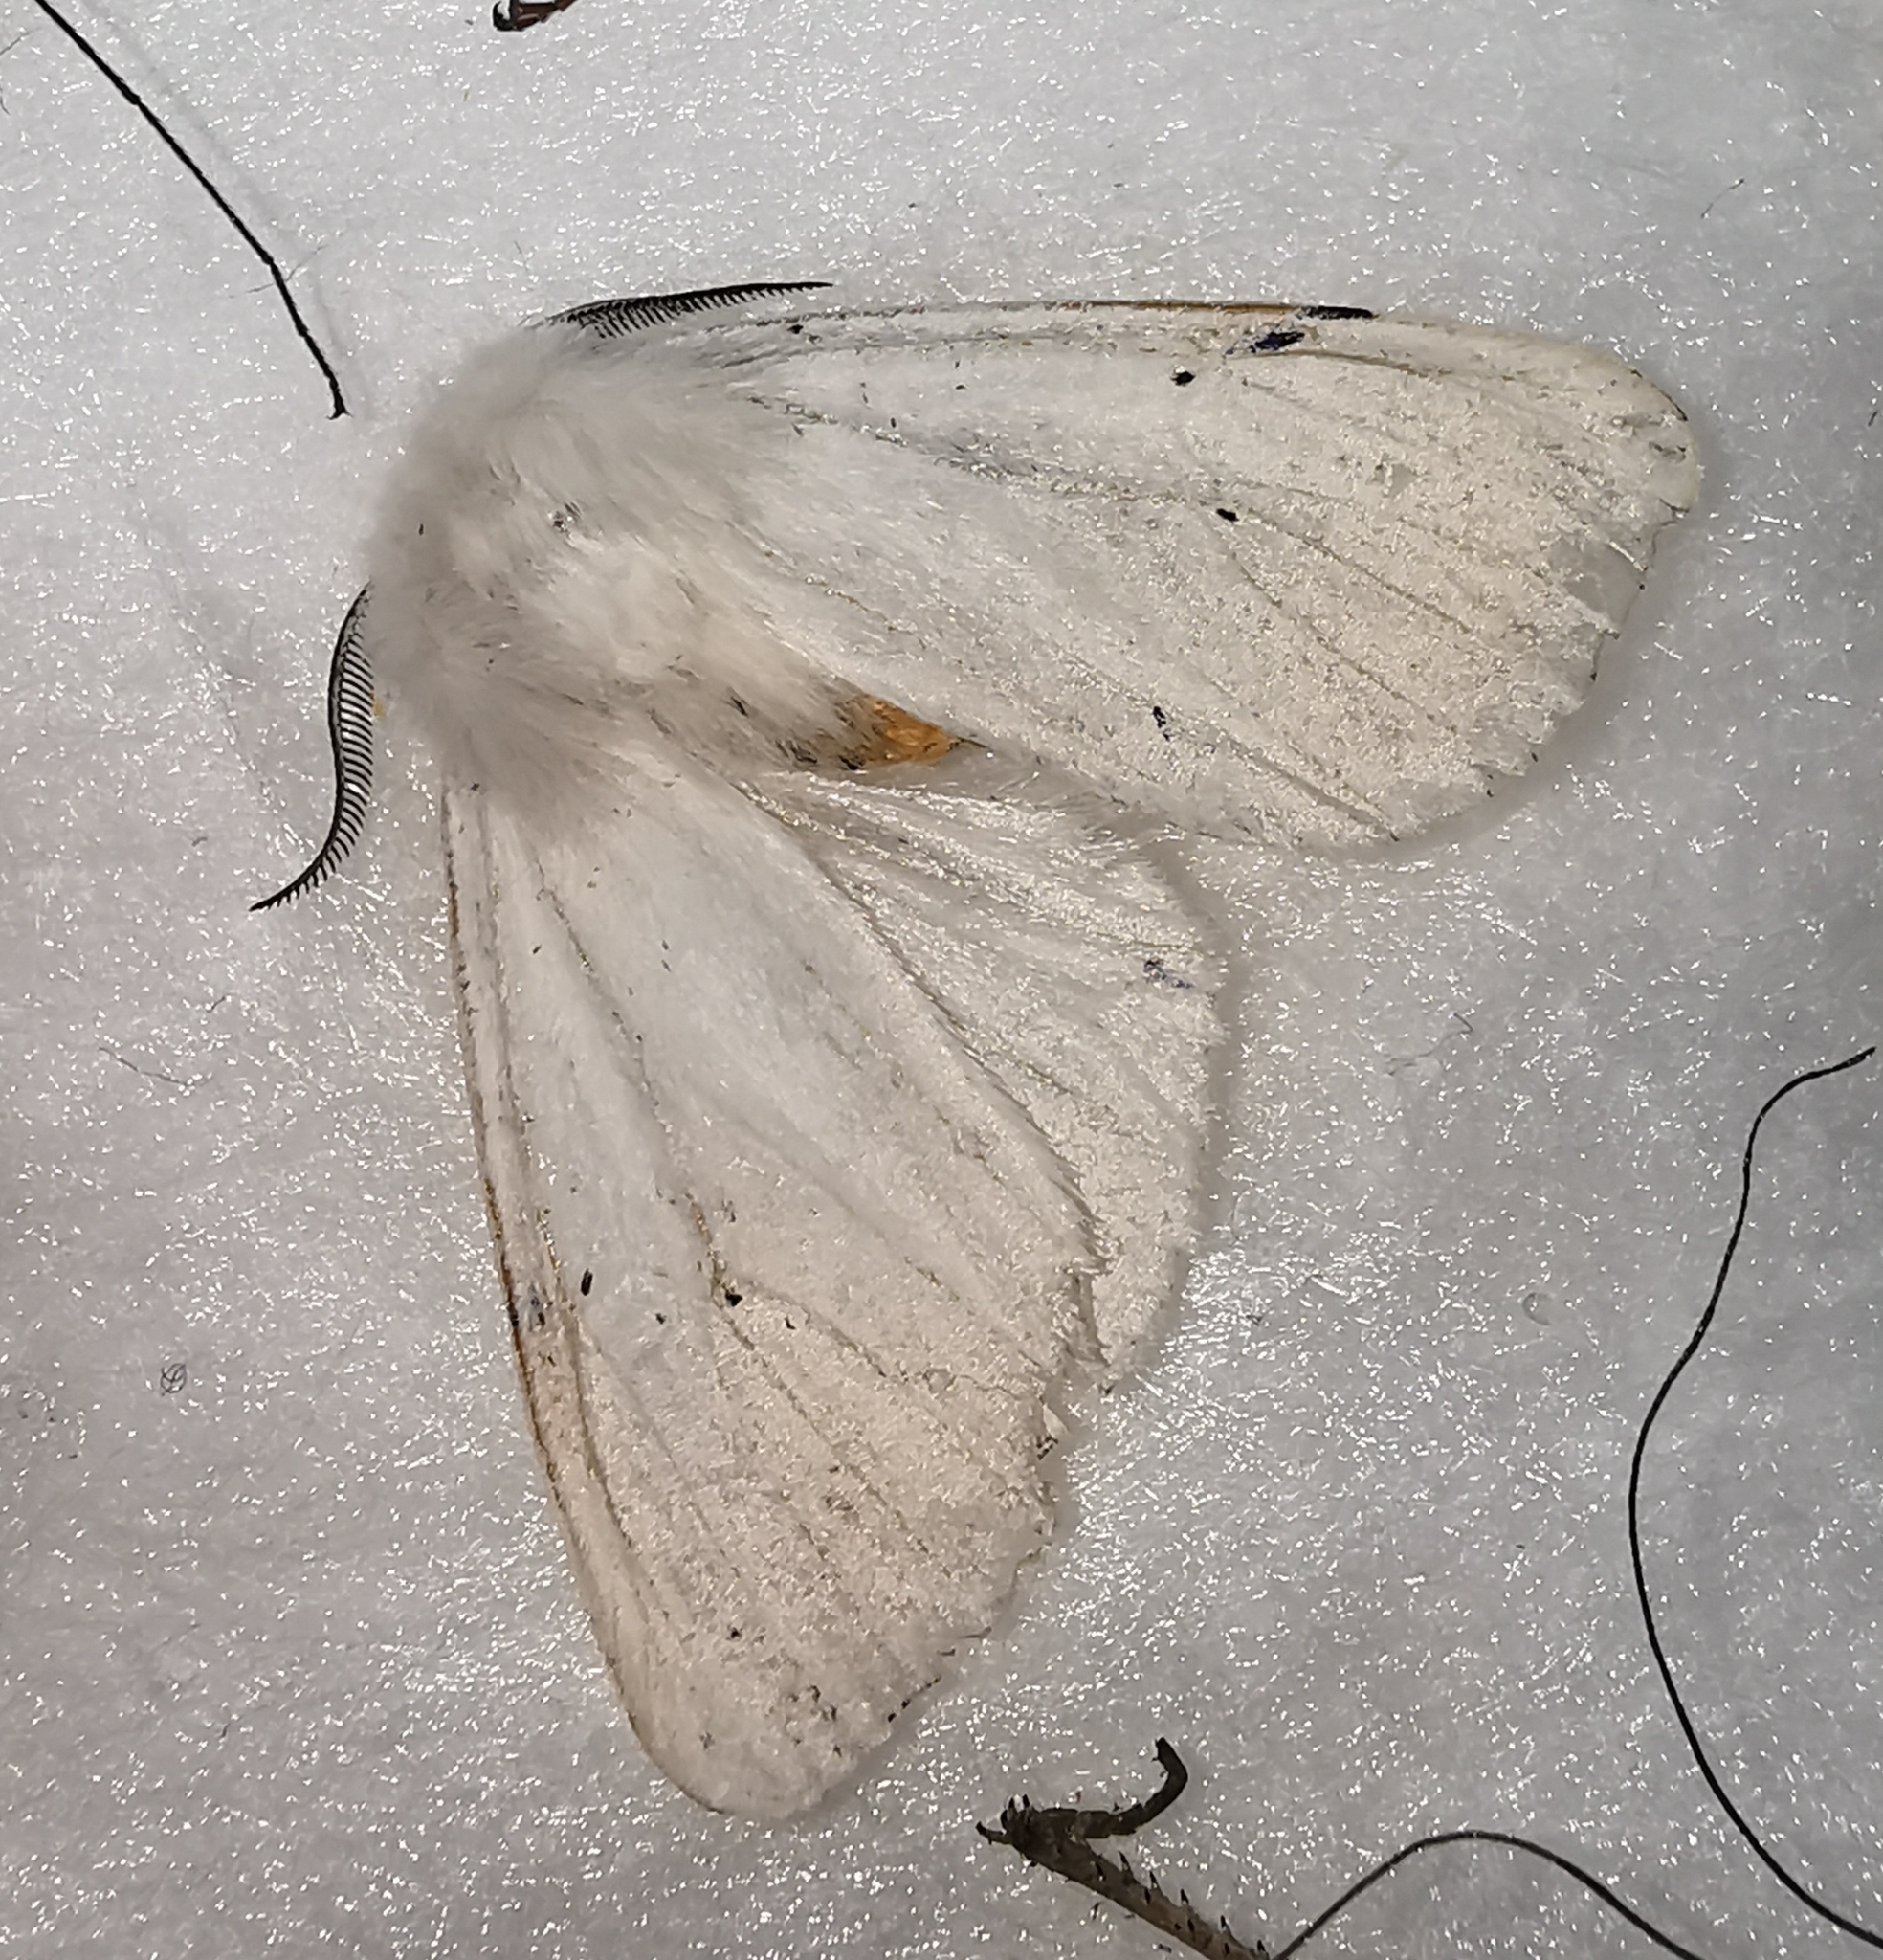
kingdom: Animalia
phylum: Arthropoda
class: Insecta
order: Lepidoptera
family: Erebidae
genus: Spilosoma
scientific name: Spilosoma lubricipeda
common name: White ermine
